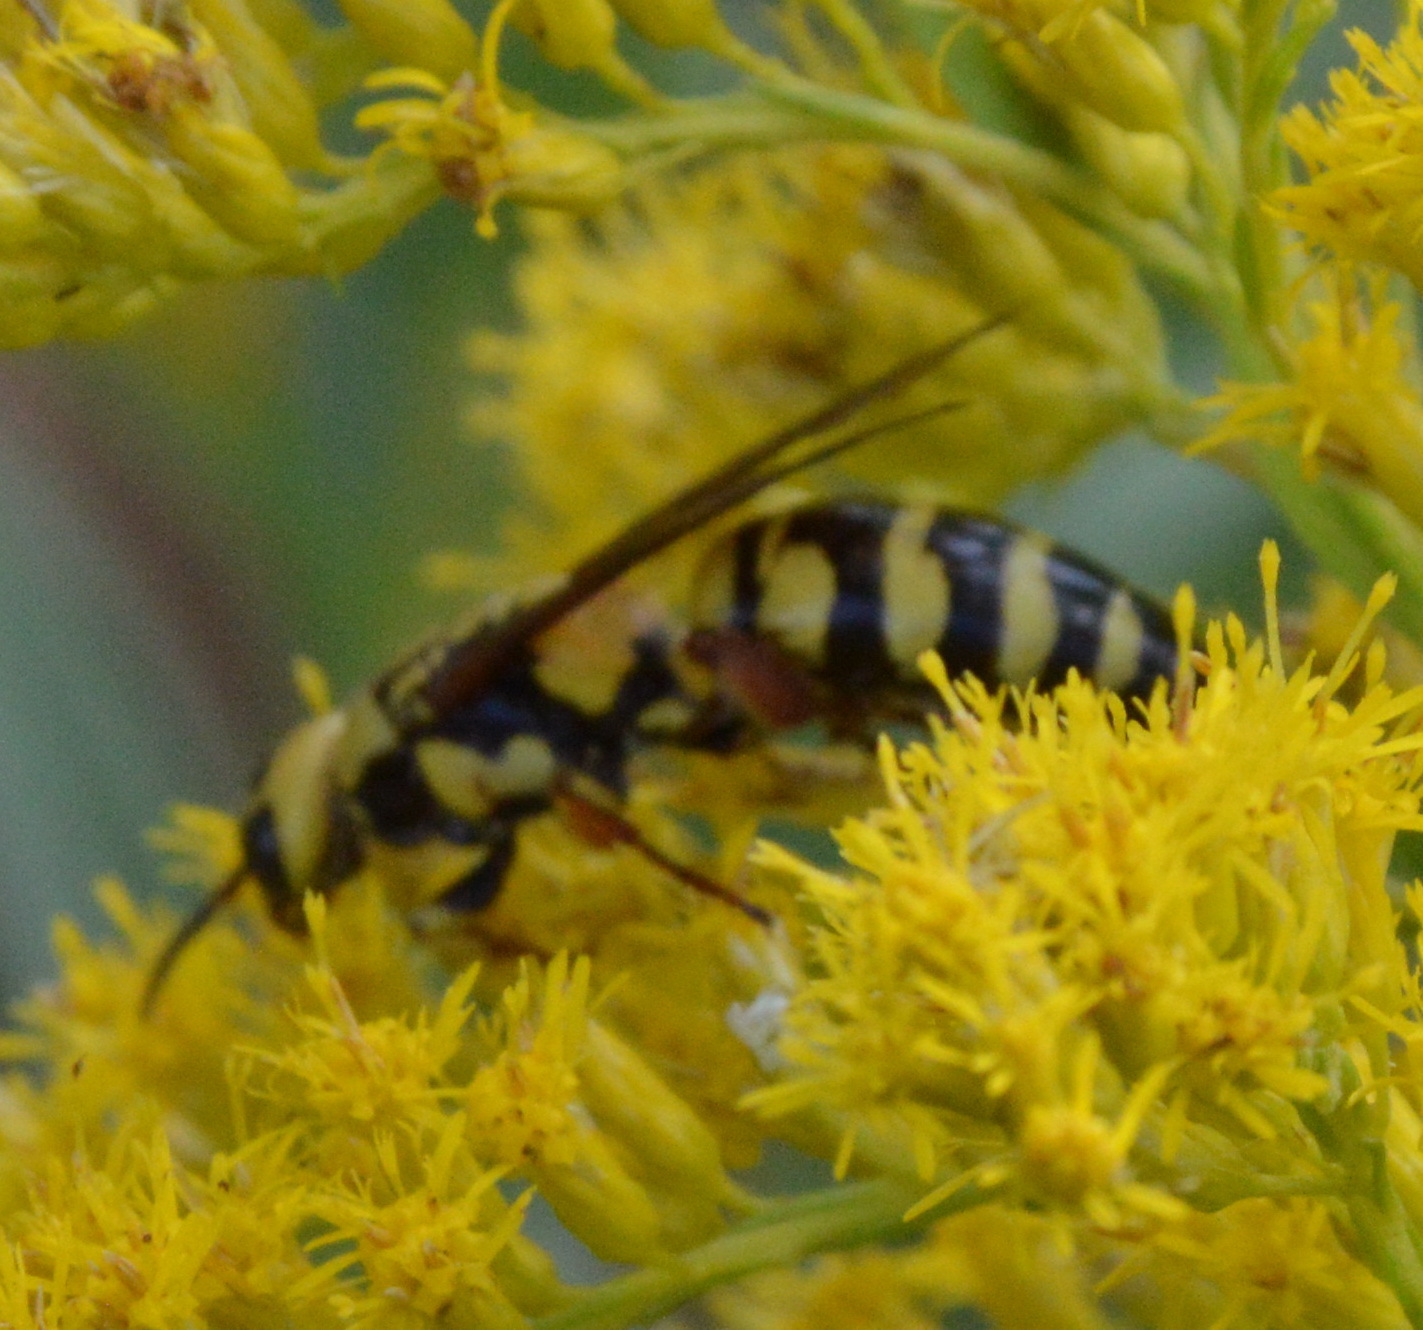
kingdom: Animalia
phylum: Arthropoda
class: Insecta
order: Hymenoptera
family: Tiphiidae
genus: Myzinum
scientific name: Myzinum
